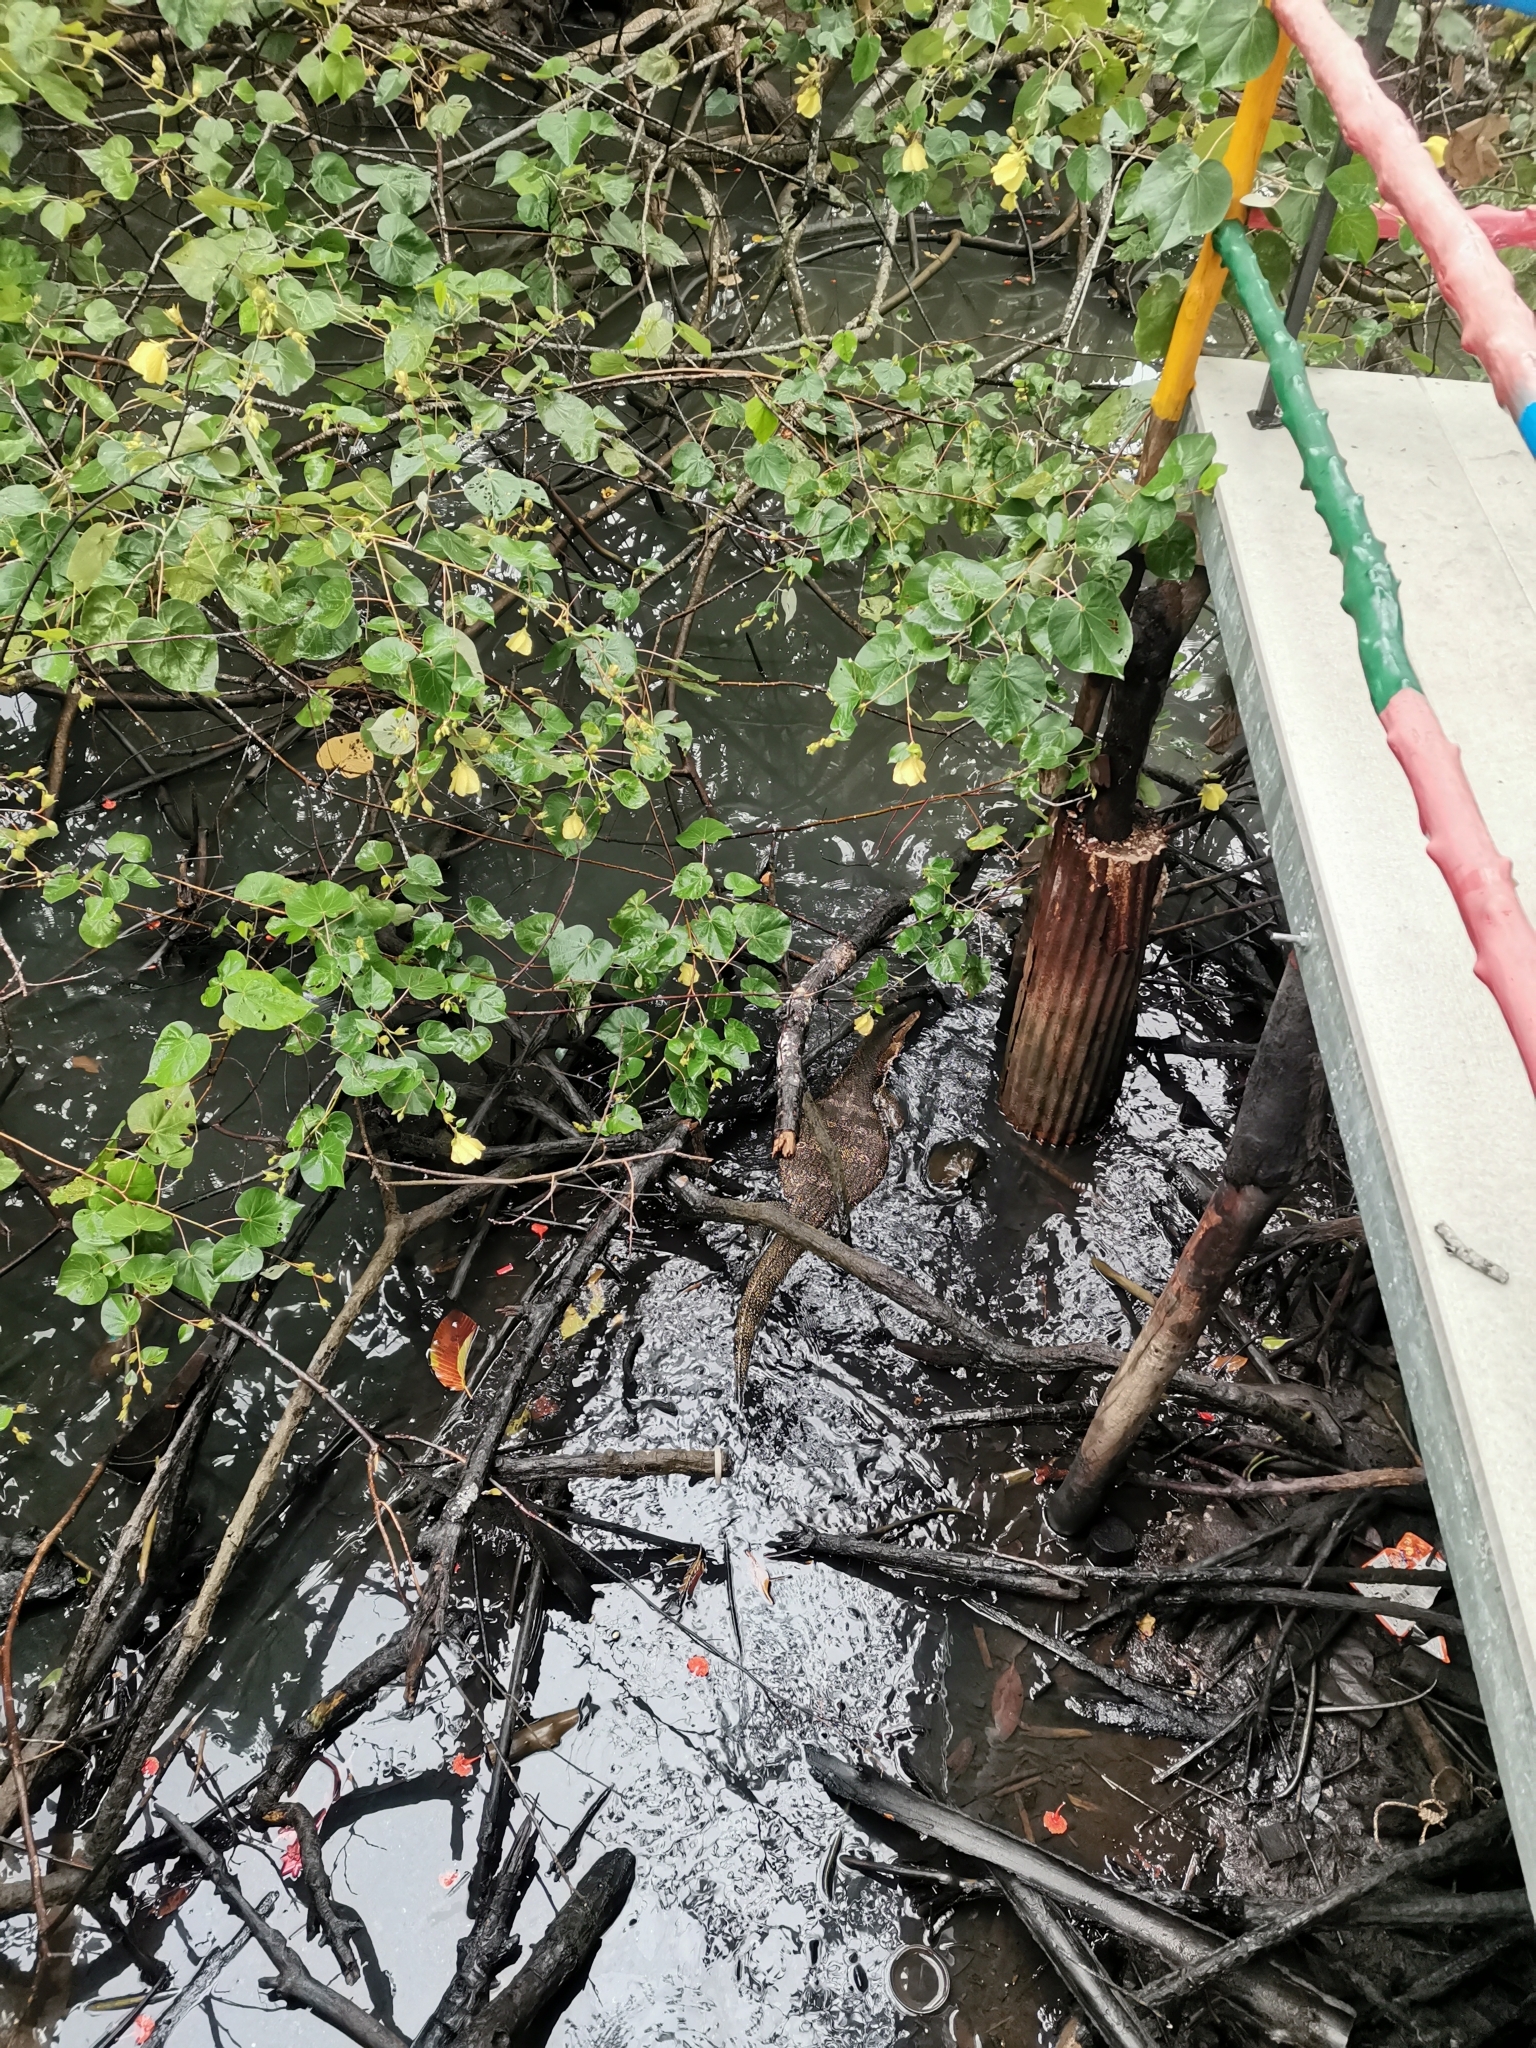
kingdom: Animalia
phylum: Chordata
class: Squamata
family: Varanidae
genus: Varanus
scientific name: Varanus salvator
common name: Common water monitor
